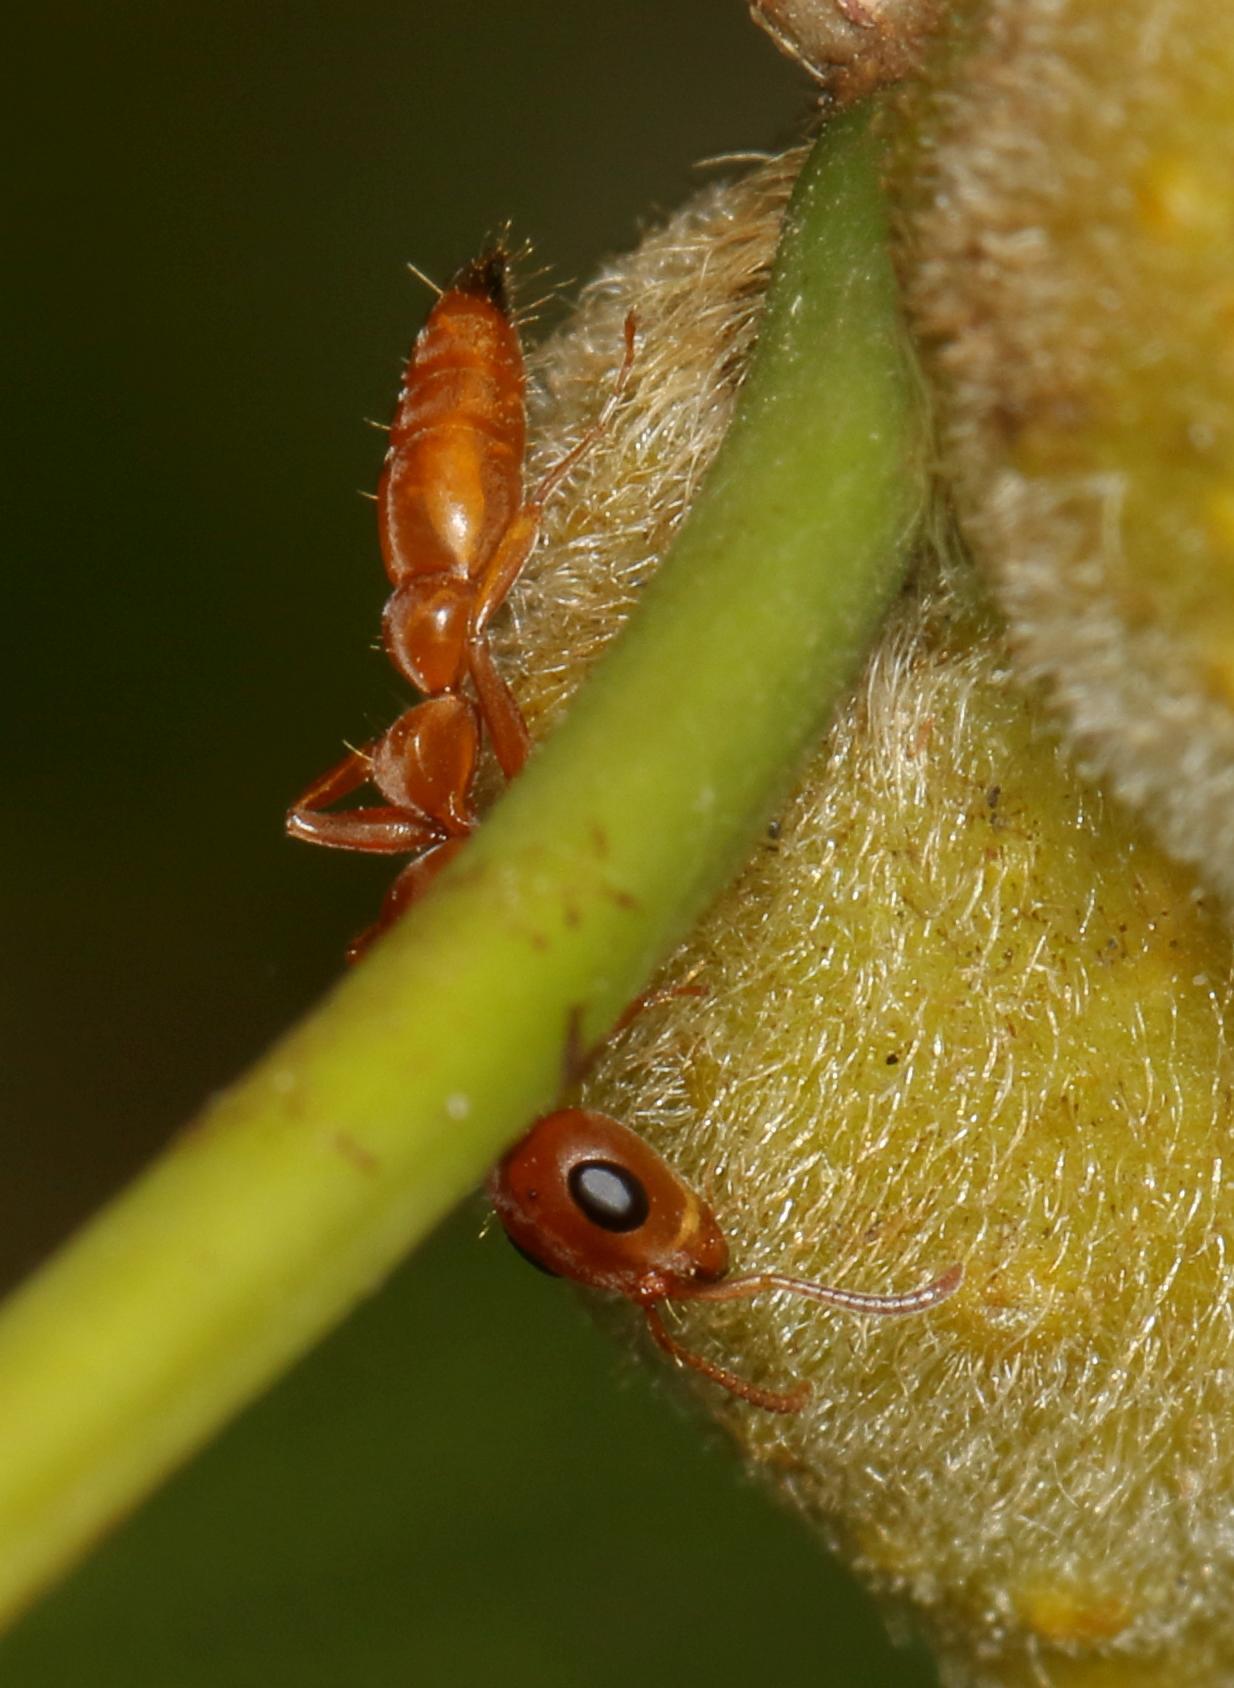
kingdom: Animalia
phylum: Arthropoda
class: Insecta
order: Hymenoptera
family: Formicidae
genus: Tetraponera
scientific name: Tetraponera natalensis
